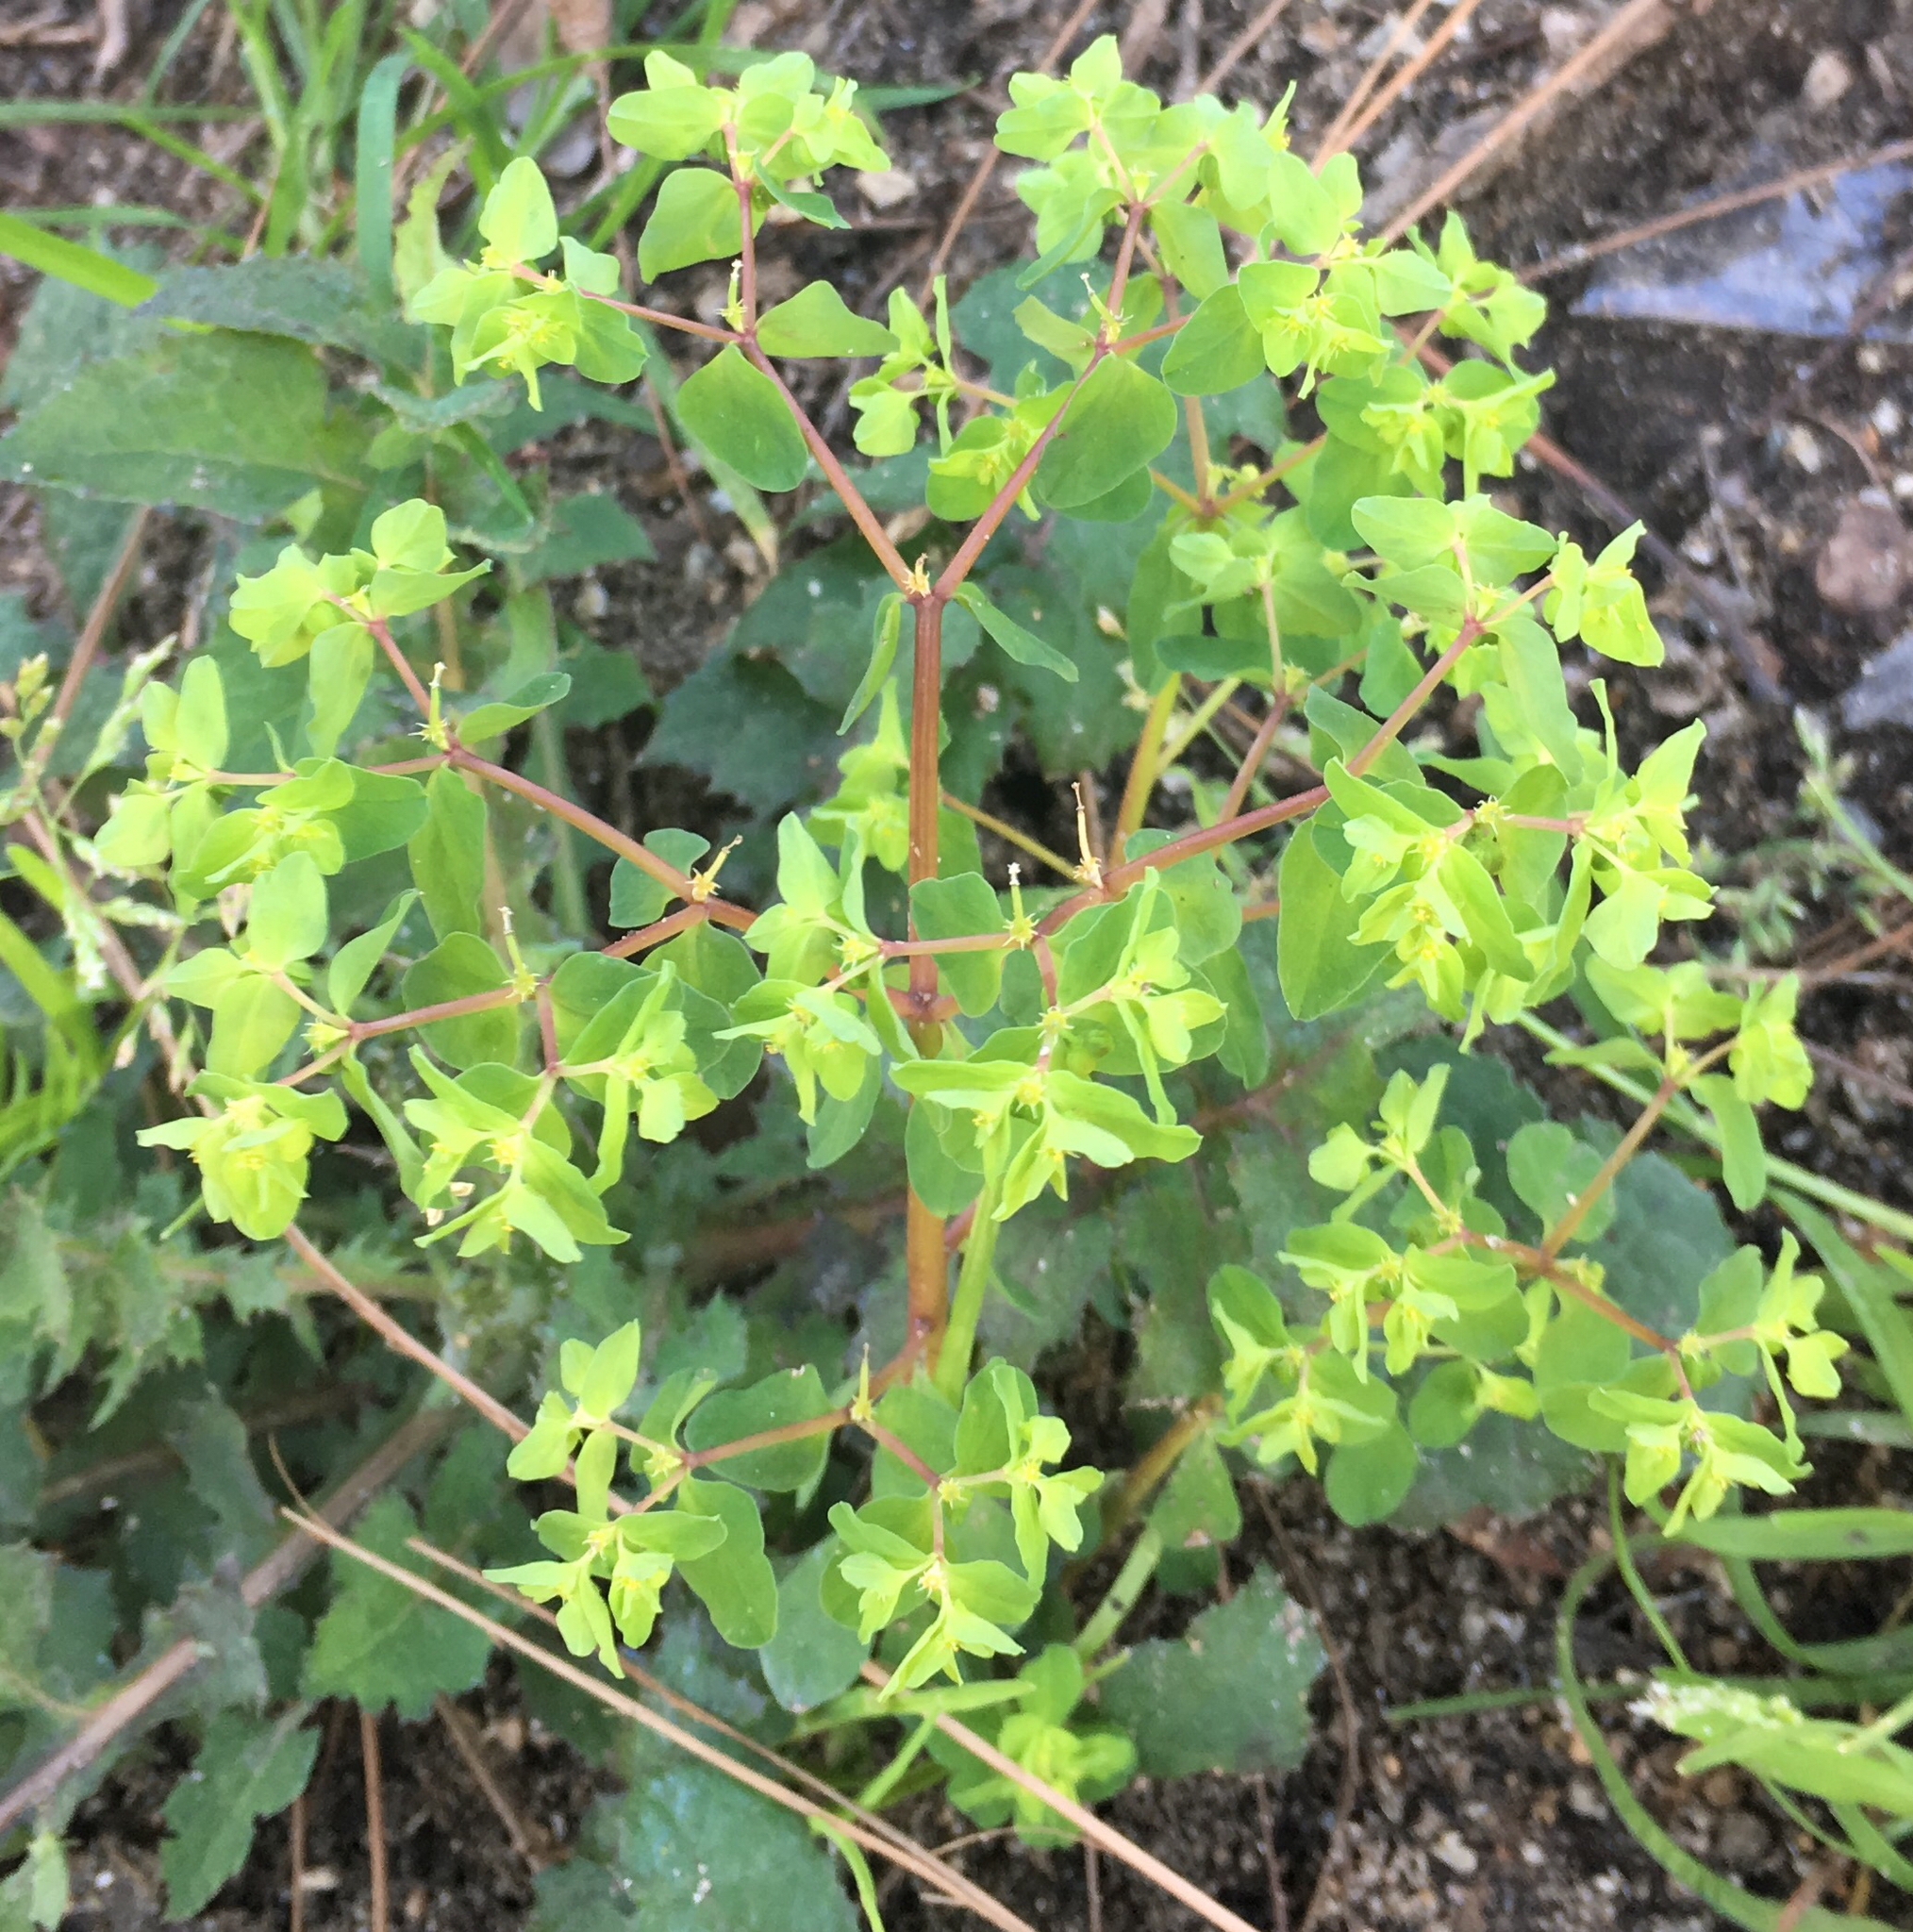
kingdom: Plantae
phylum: Tracheophyta
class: Magnoliopsida
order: Malpighiales
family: Euphorbiaceae
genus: Euphorbia
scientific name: Euphorbia peplus
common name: Petty spurge
